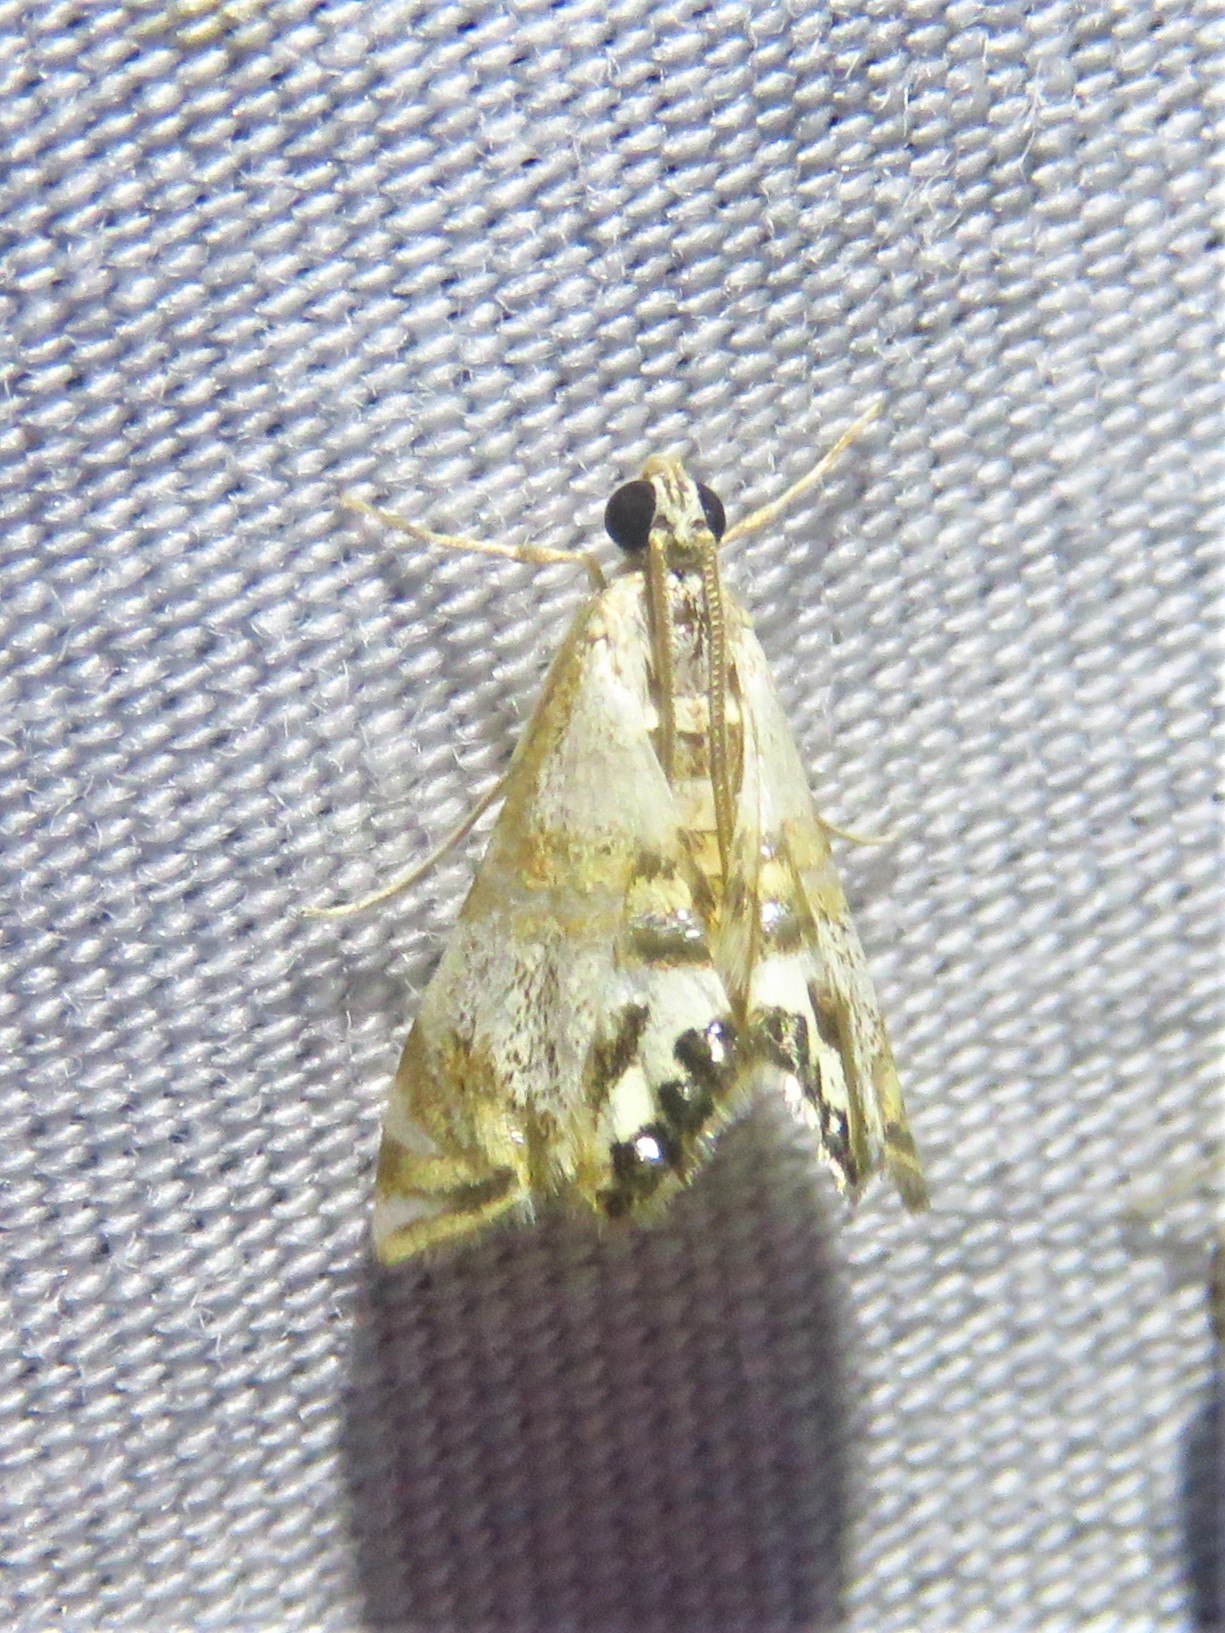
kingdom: Animalia
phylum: Arthropoda
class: Insecta
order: Lepidoptera
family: Crambidae
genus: Petrophila
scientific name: Petrophila bifascialis
